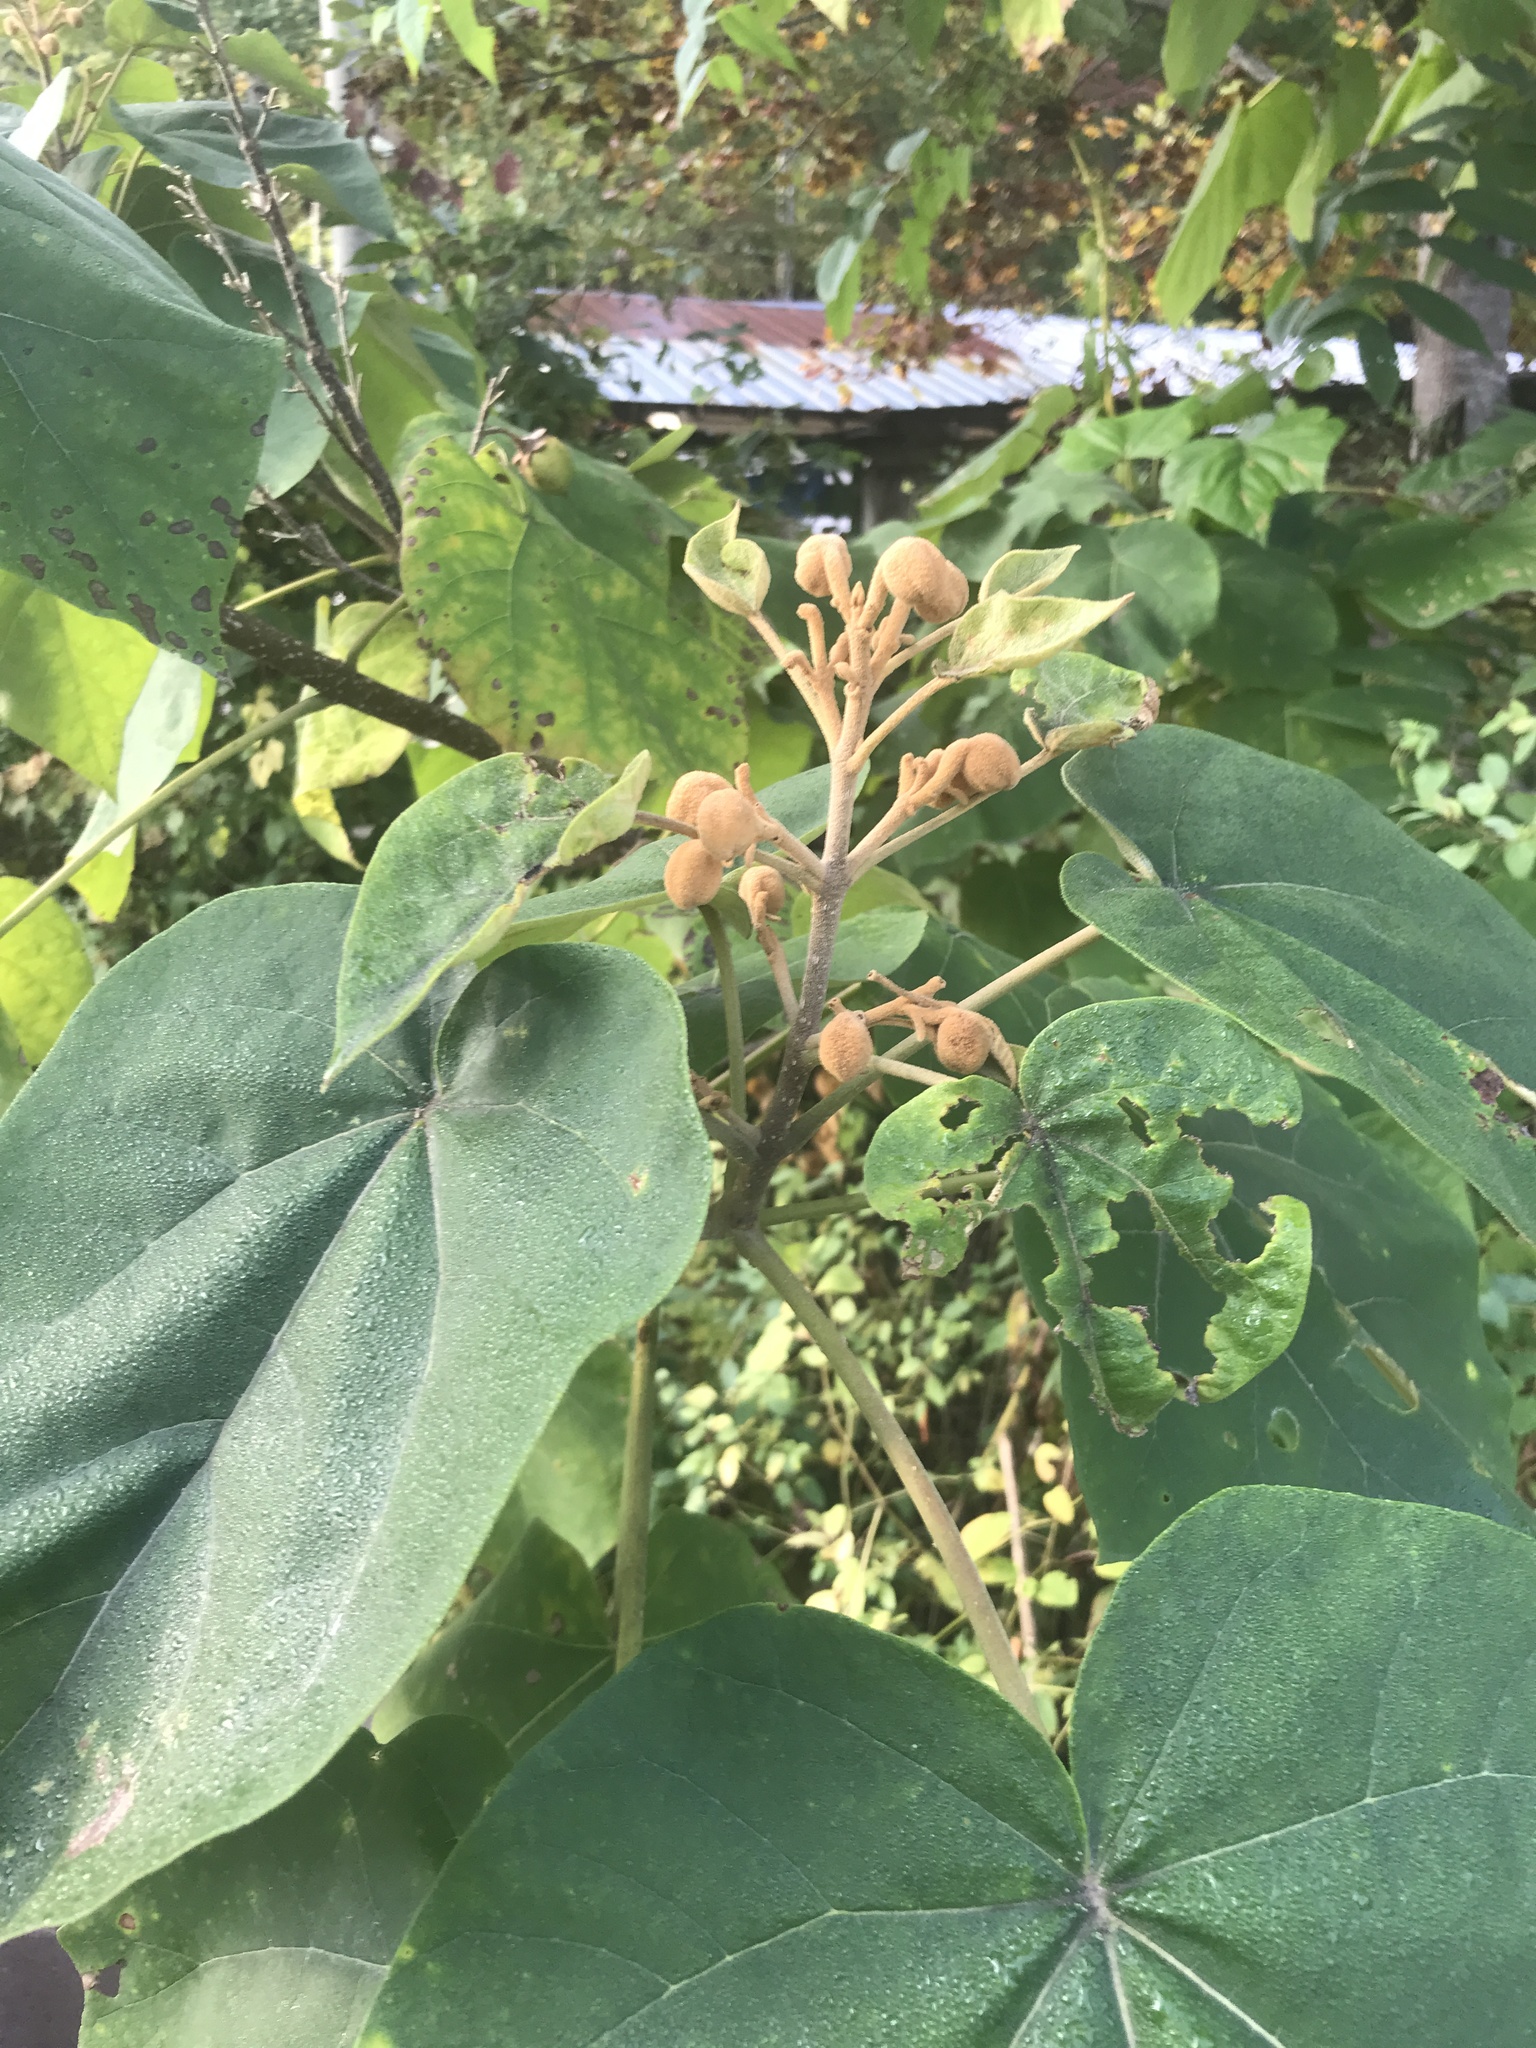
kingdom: Plantae
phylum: Tracheophyta
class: Magnoliopsida
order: Lamiales
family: Paulowniaceae
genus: Paulownia
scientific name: Paulownia tomentosa
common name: Foxglove-tree
